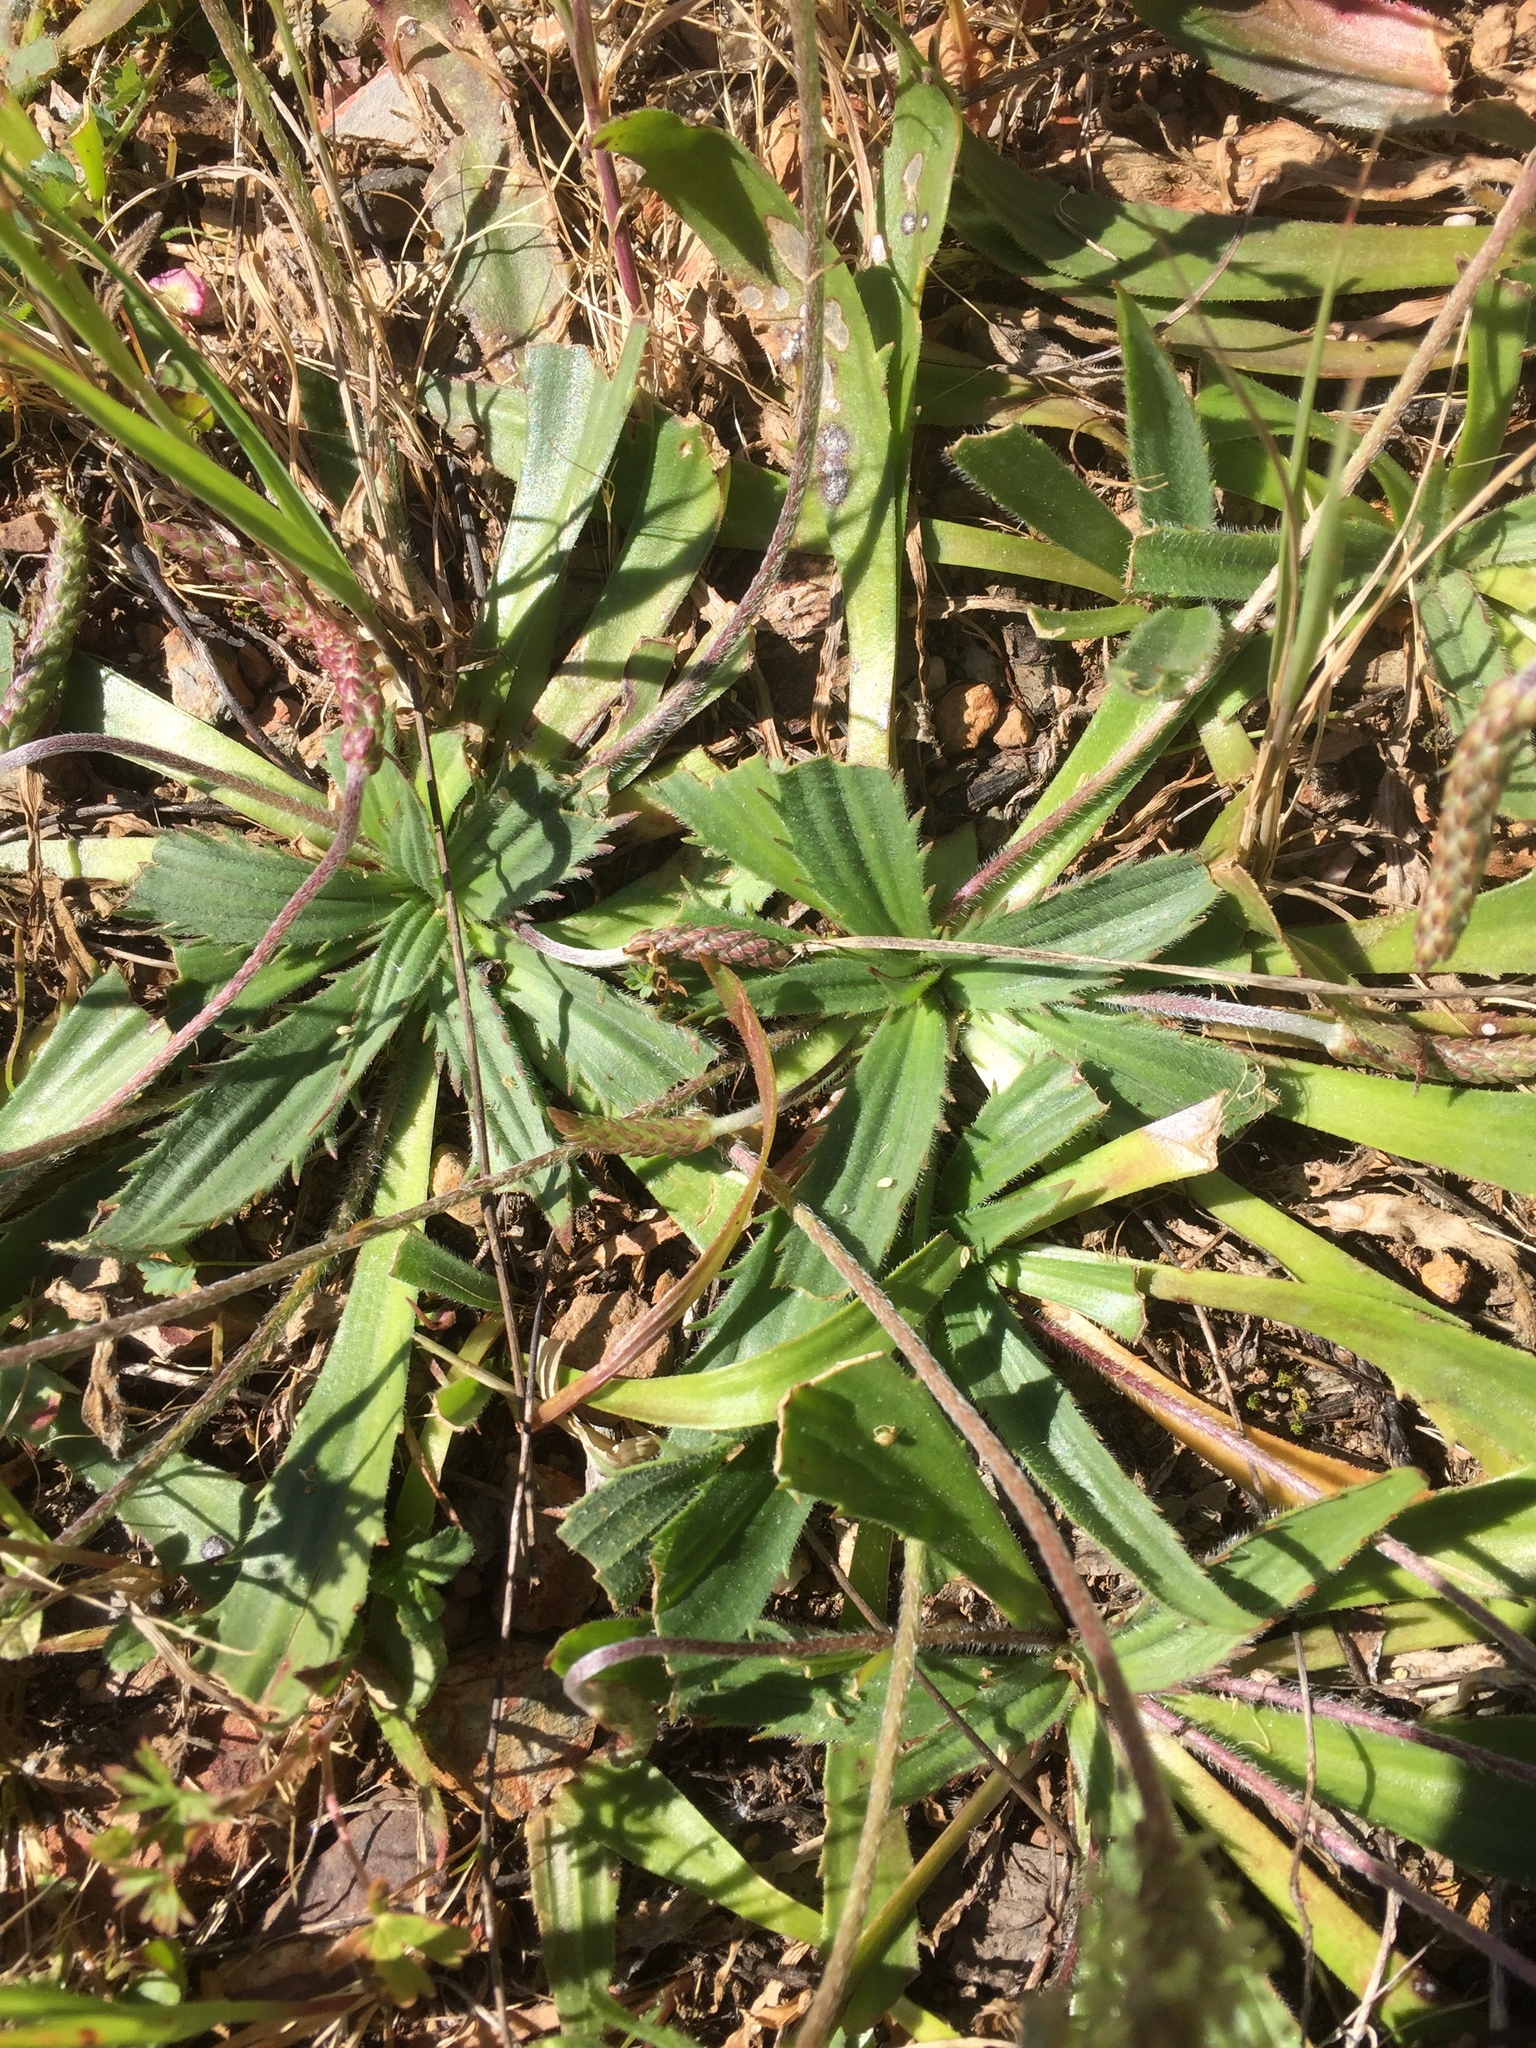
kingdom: Plantae
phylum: Tracheophyta
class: Magnoliopsida
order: Lamiales
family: Plantaginaceae
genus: Plantago
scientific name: Plantago serraria
